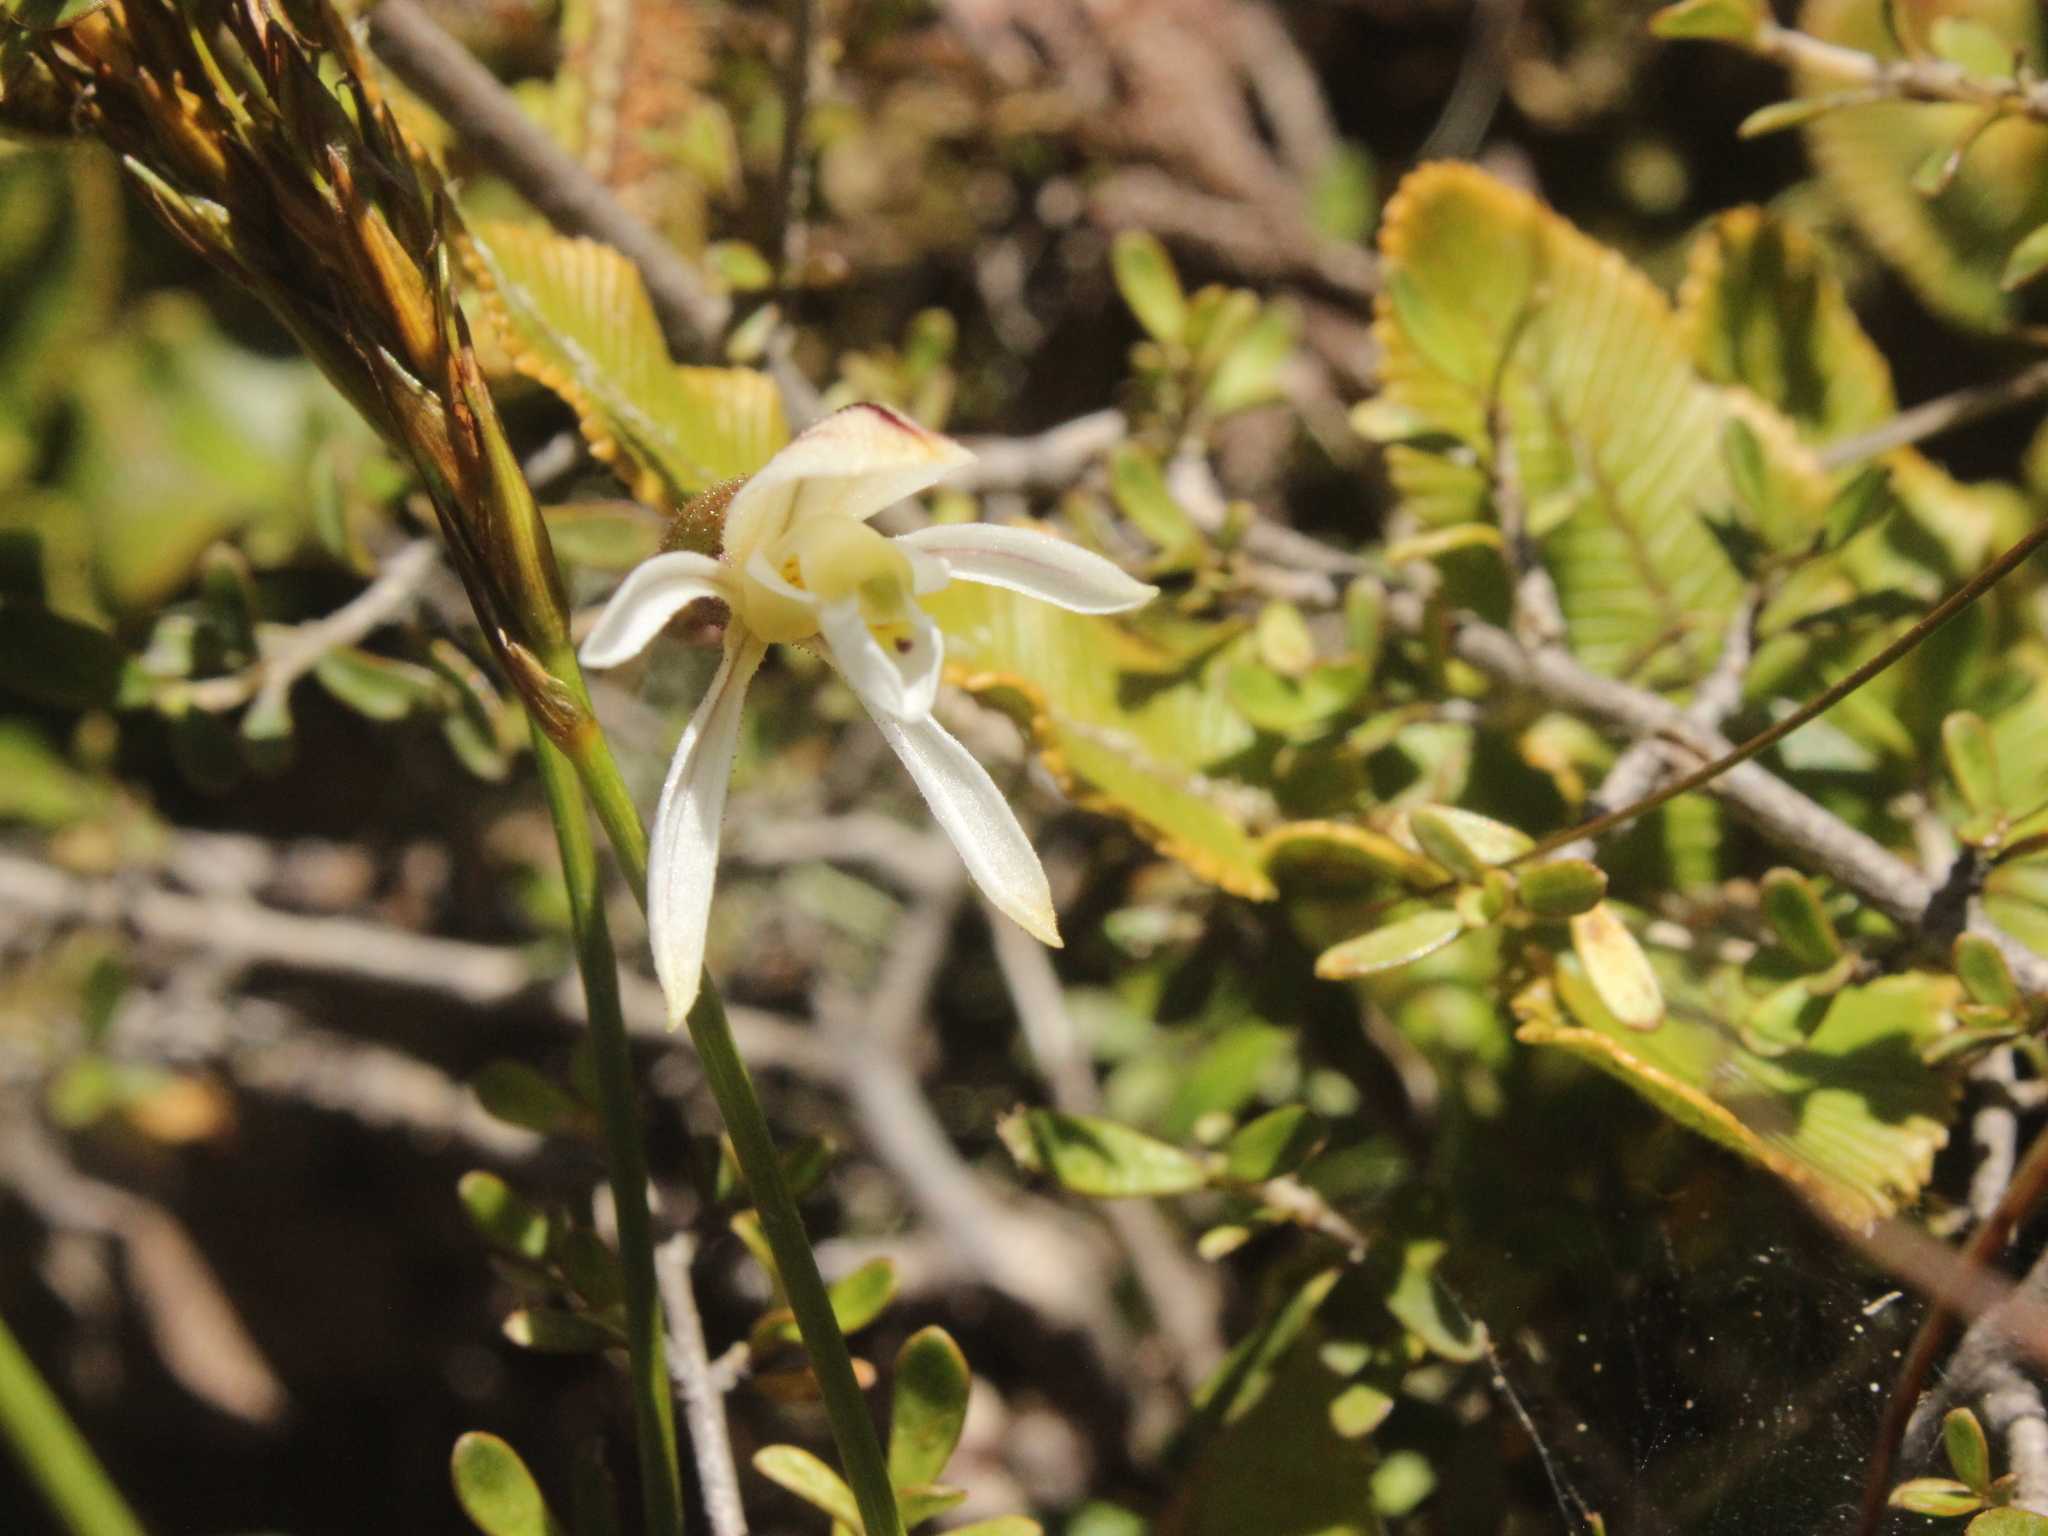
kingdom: Plantae
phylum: Tracheophyta
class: Liliopsida
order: Asparagales
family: Orchidaceae
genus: Aporostylis
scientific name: Aporostylis bifolia
